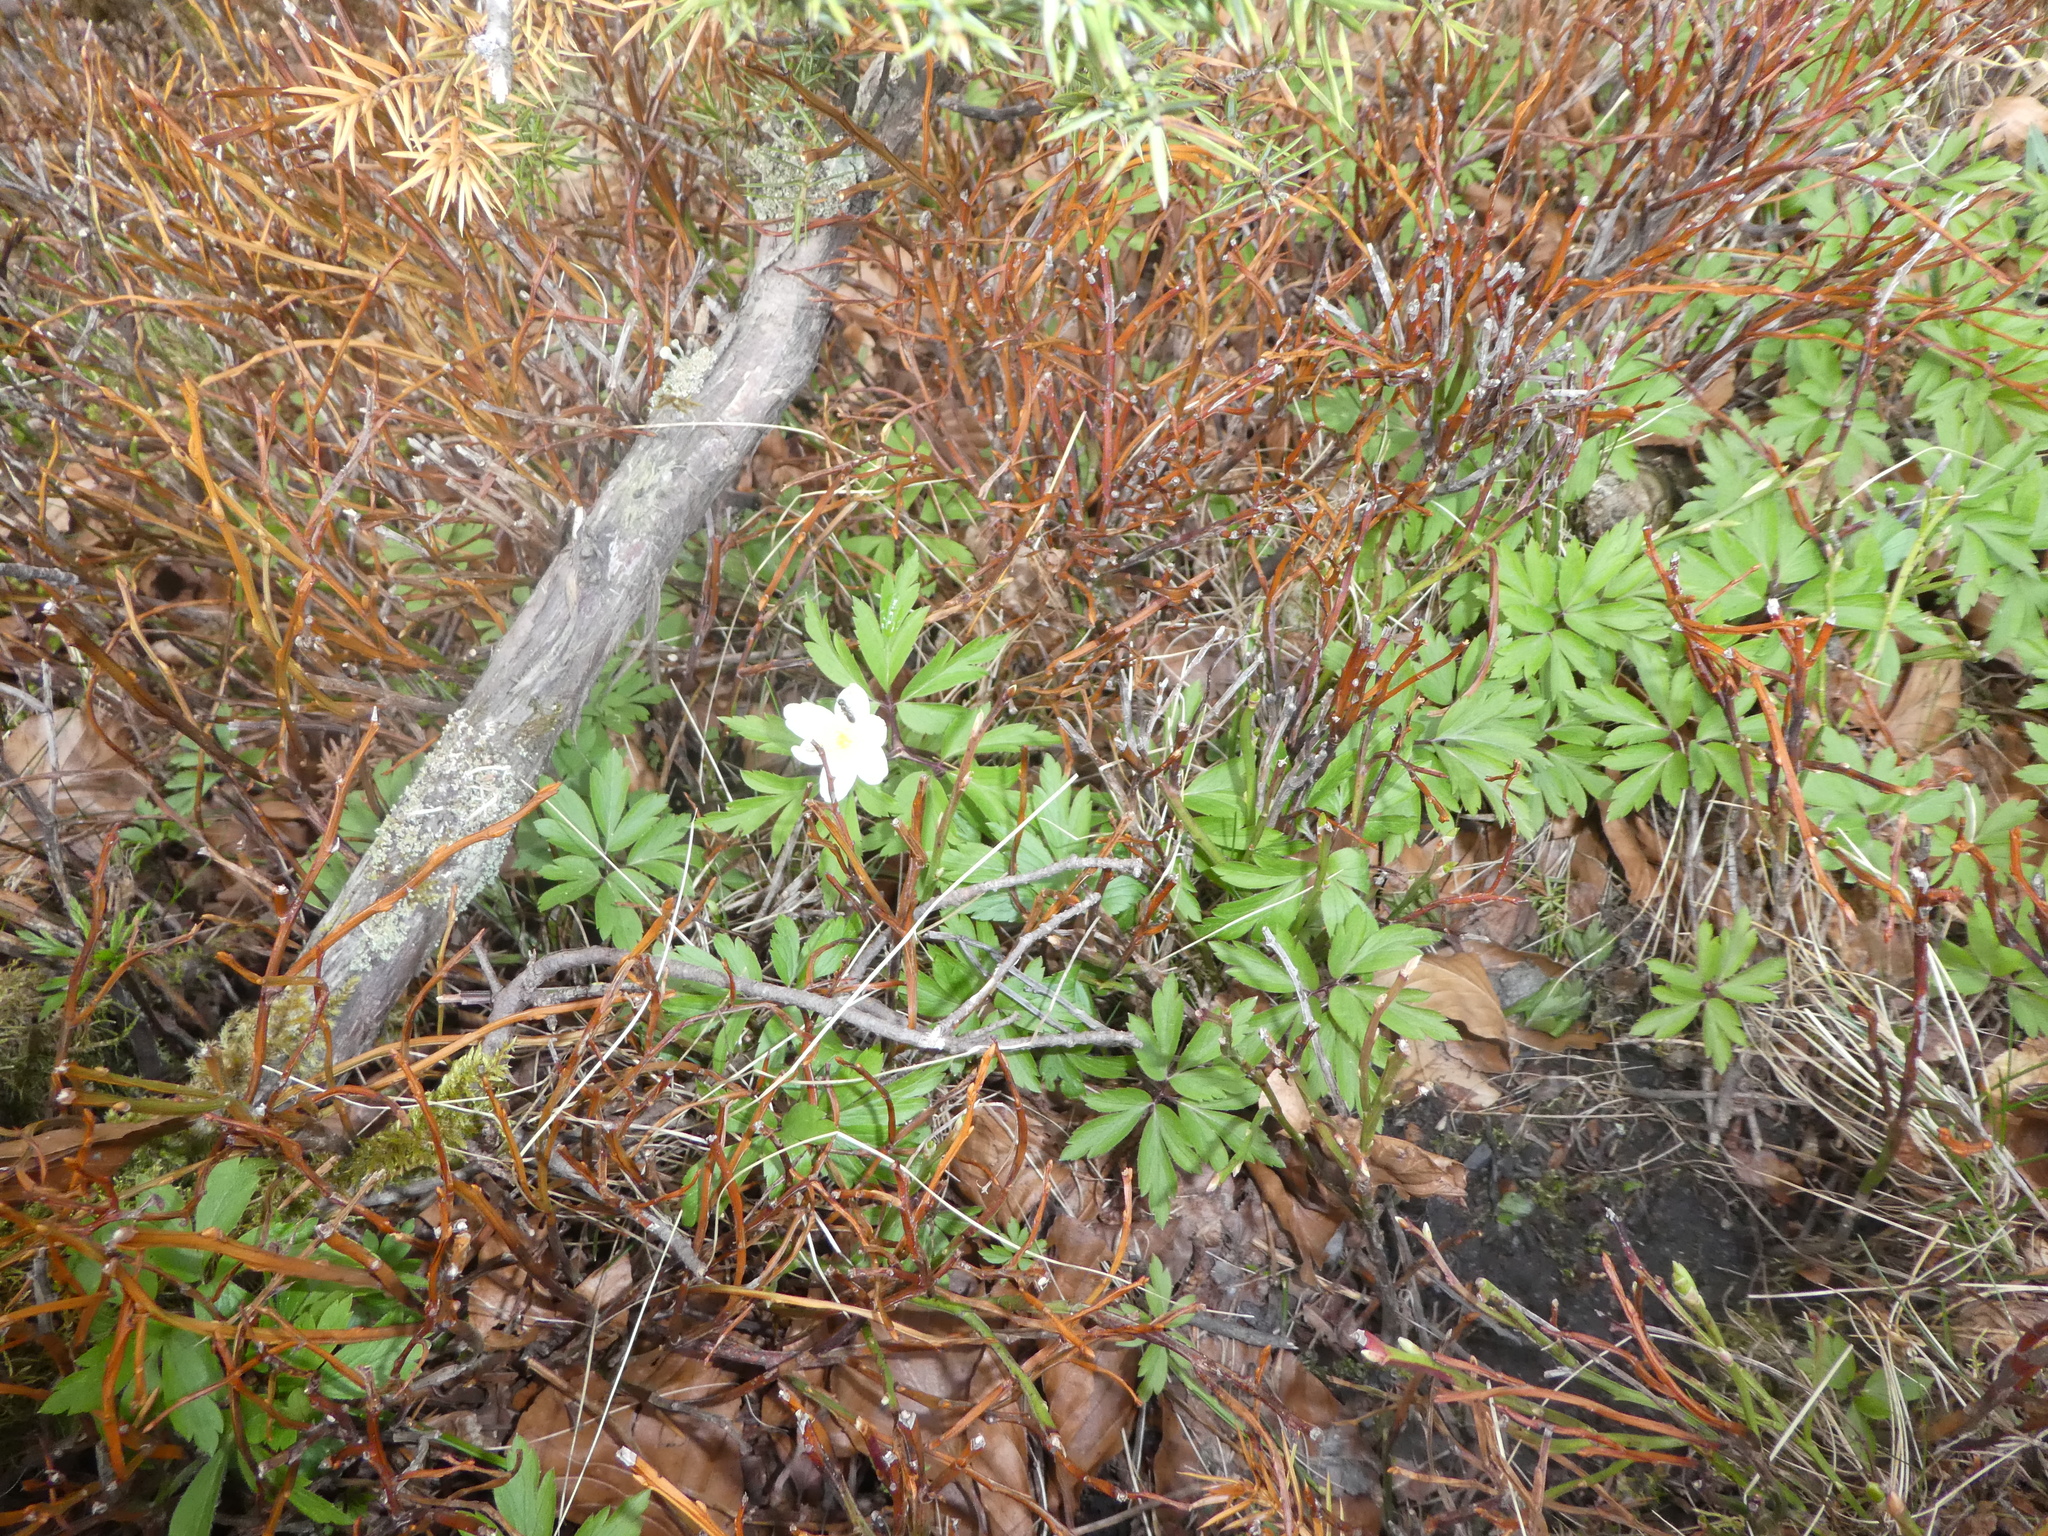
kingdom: Plantae
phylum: Tracheophyta
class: Magnoliopsida
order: Ranunculales
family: Ranunculaceae
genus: Anemone
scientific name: Anemone nemorosa
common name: Wood anemone
